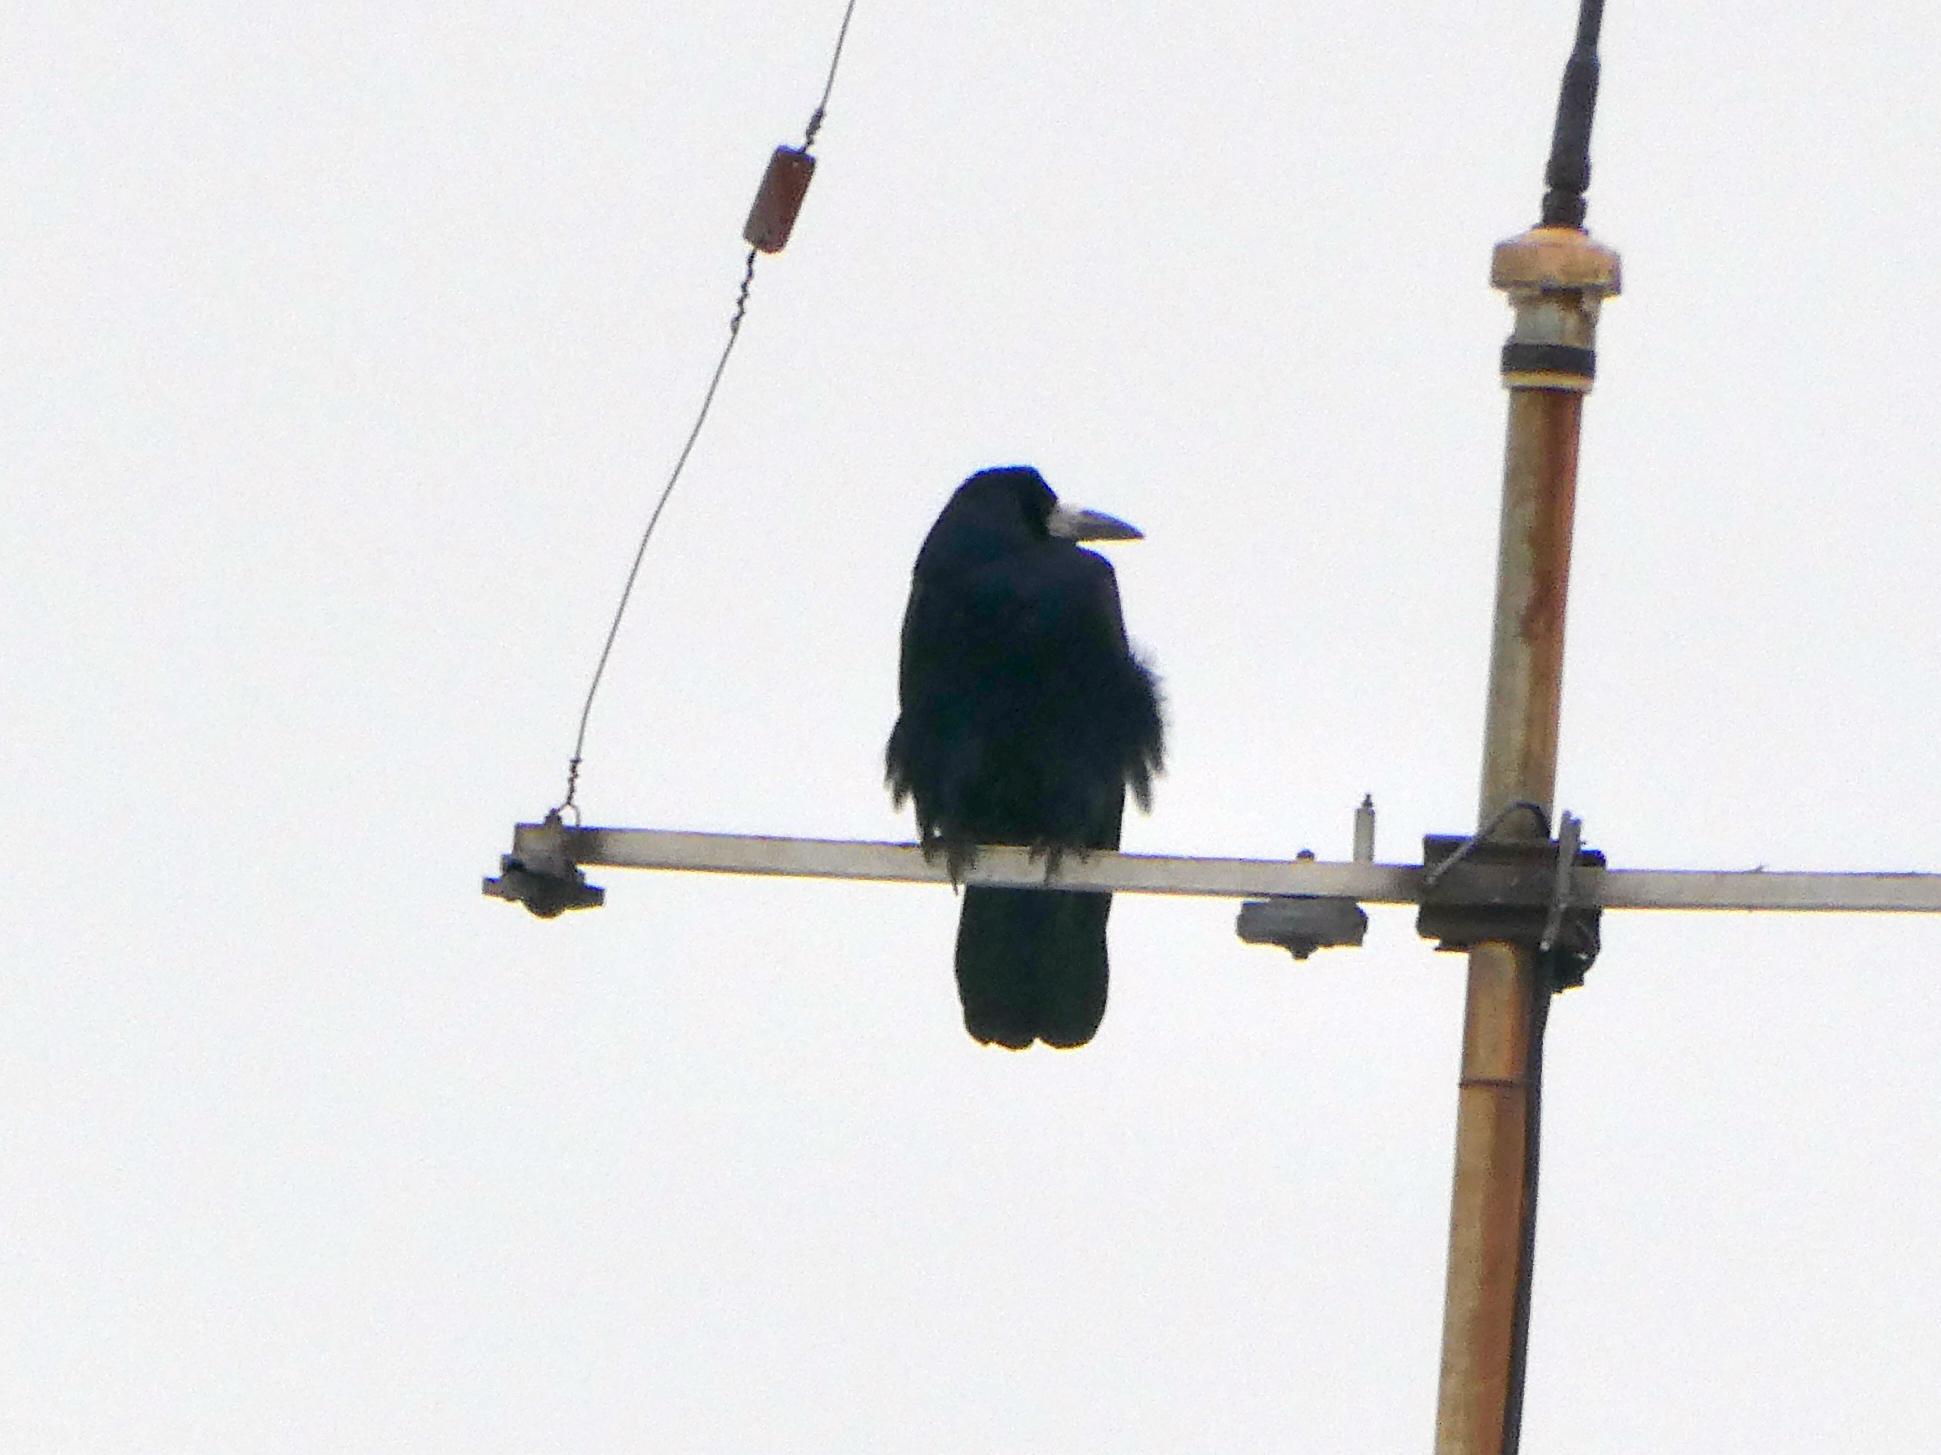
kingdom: Animalia
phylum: Chordata
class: Aves
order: Passeriformes
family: Corvidae
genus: Corvus
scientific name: Corvus frugilegus
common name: Rook
